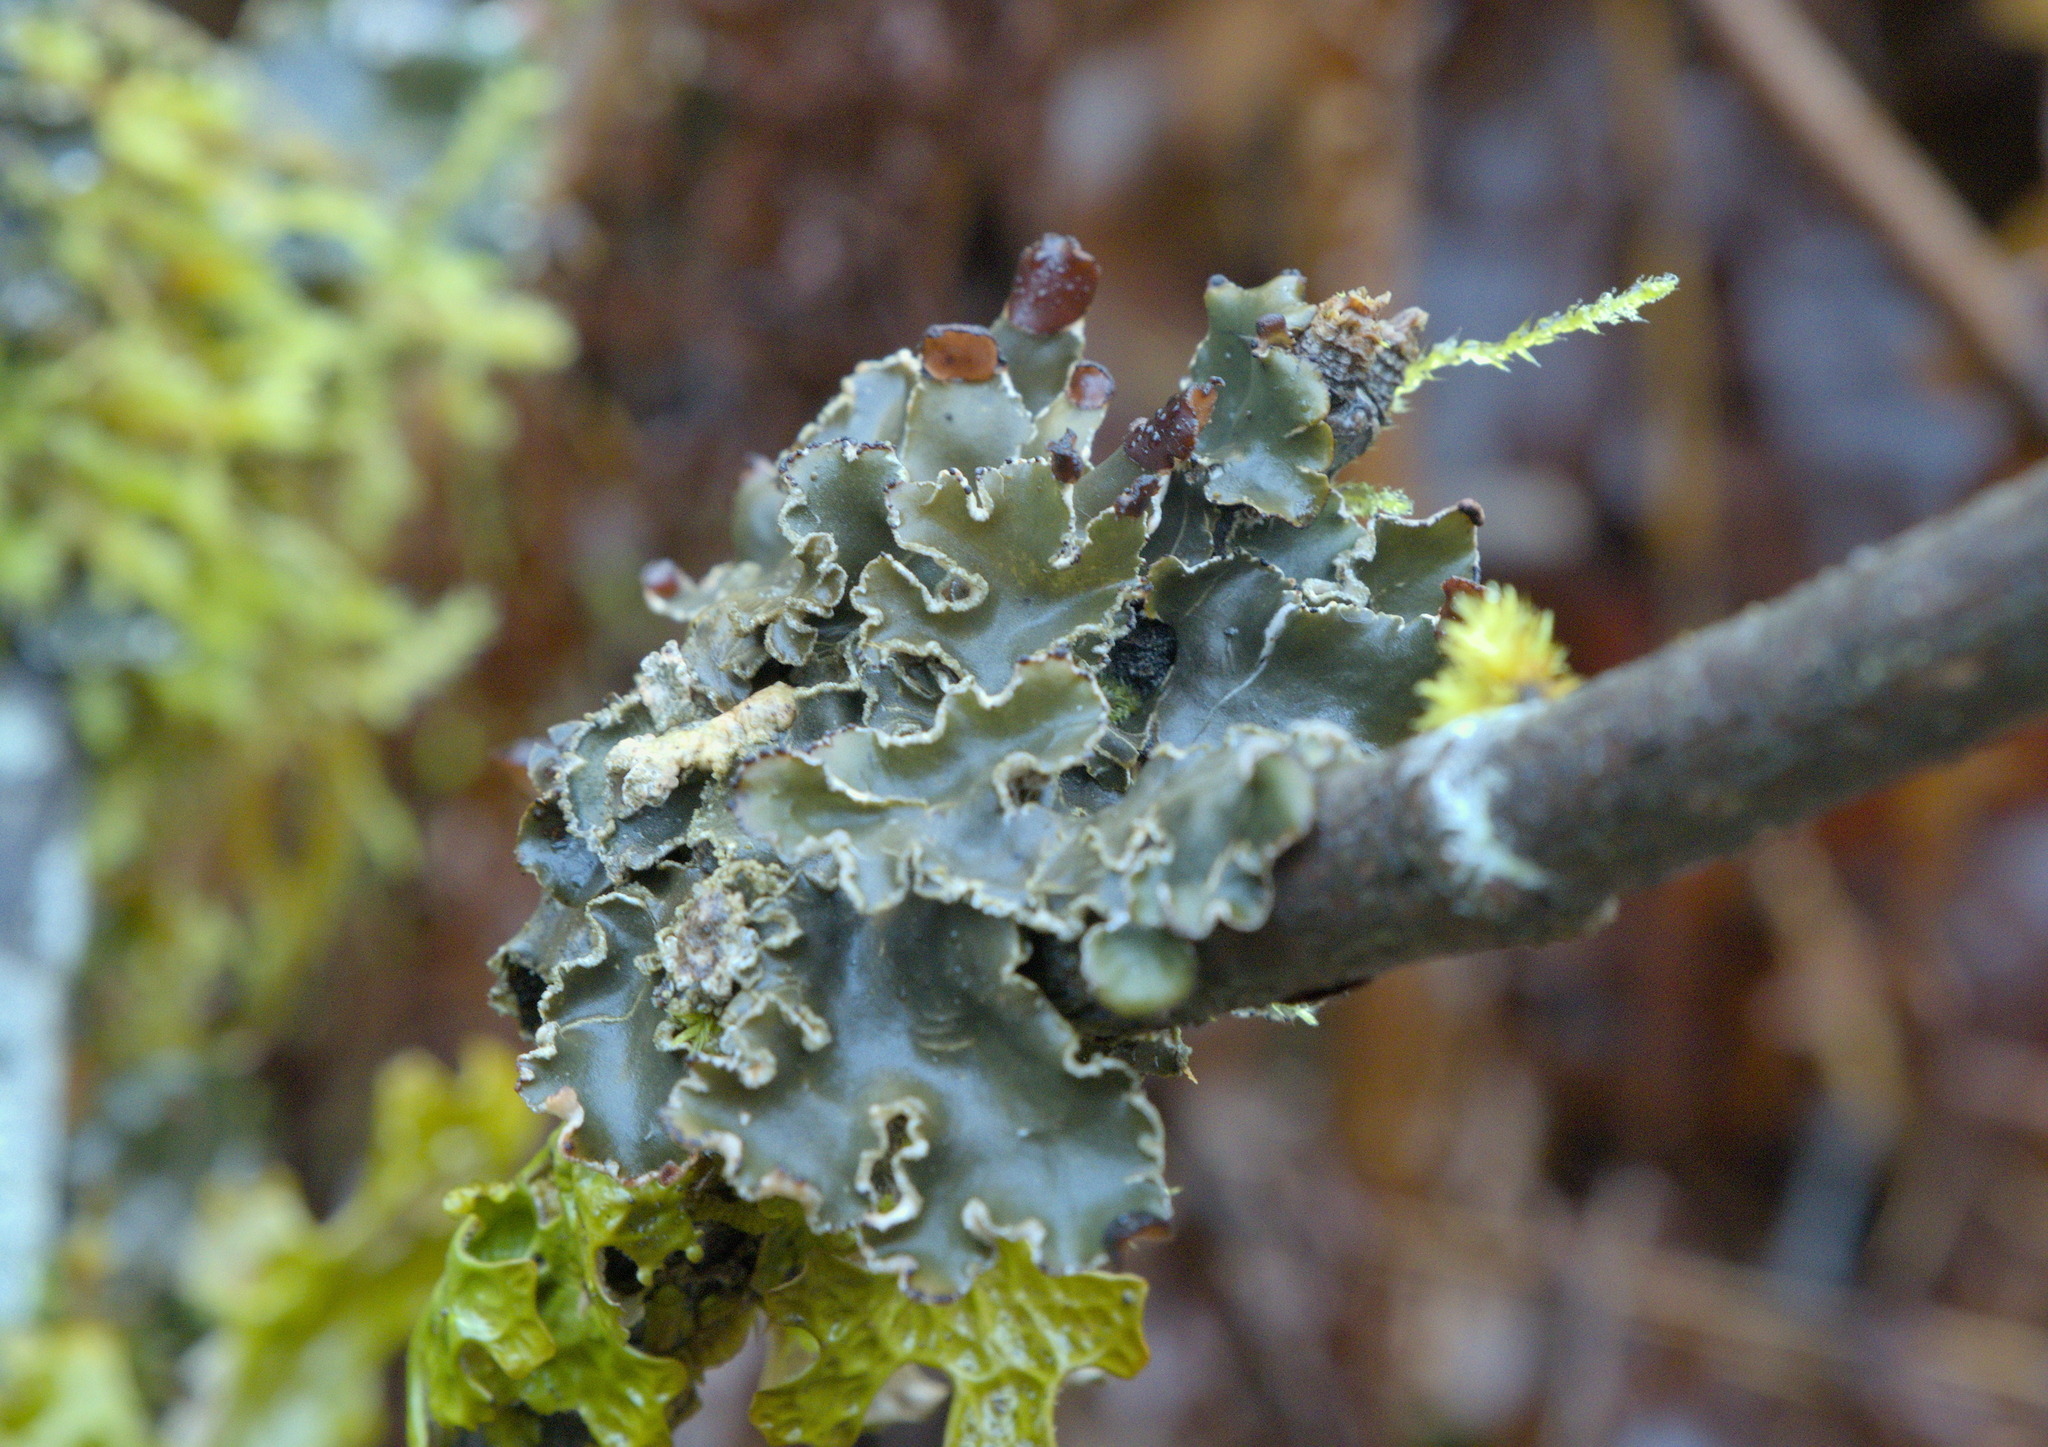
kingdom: Fungi
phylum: Ascomycota
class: Lecanoromycetes
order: Peltigerales
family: Peltigeraceae
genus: Peltigera
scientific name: Peltigera collina
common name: Gritty tree pelt lichen
